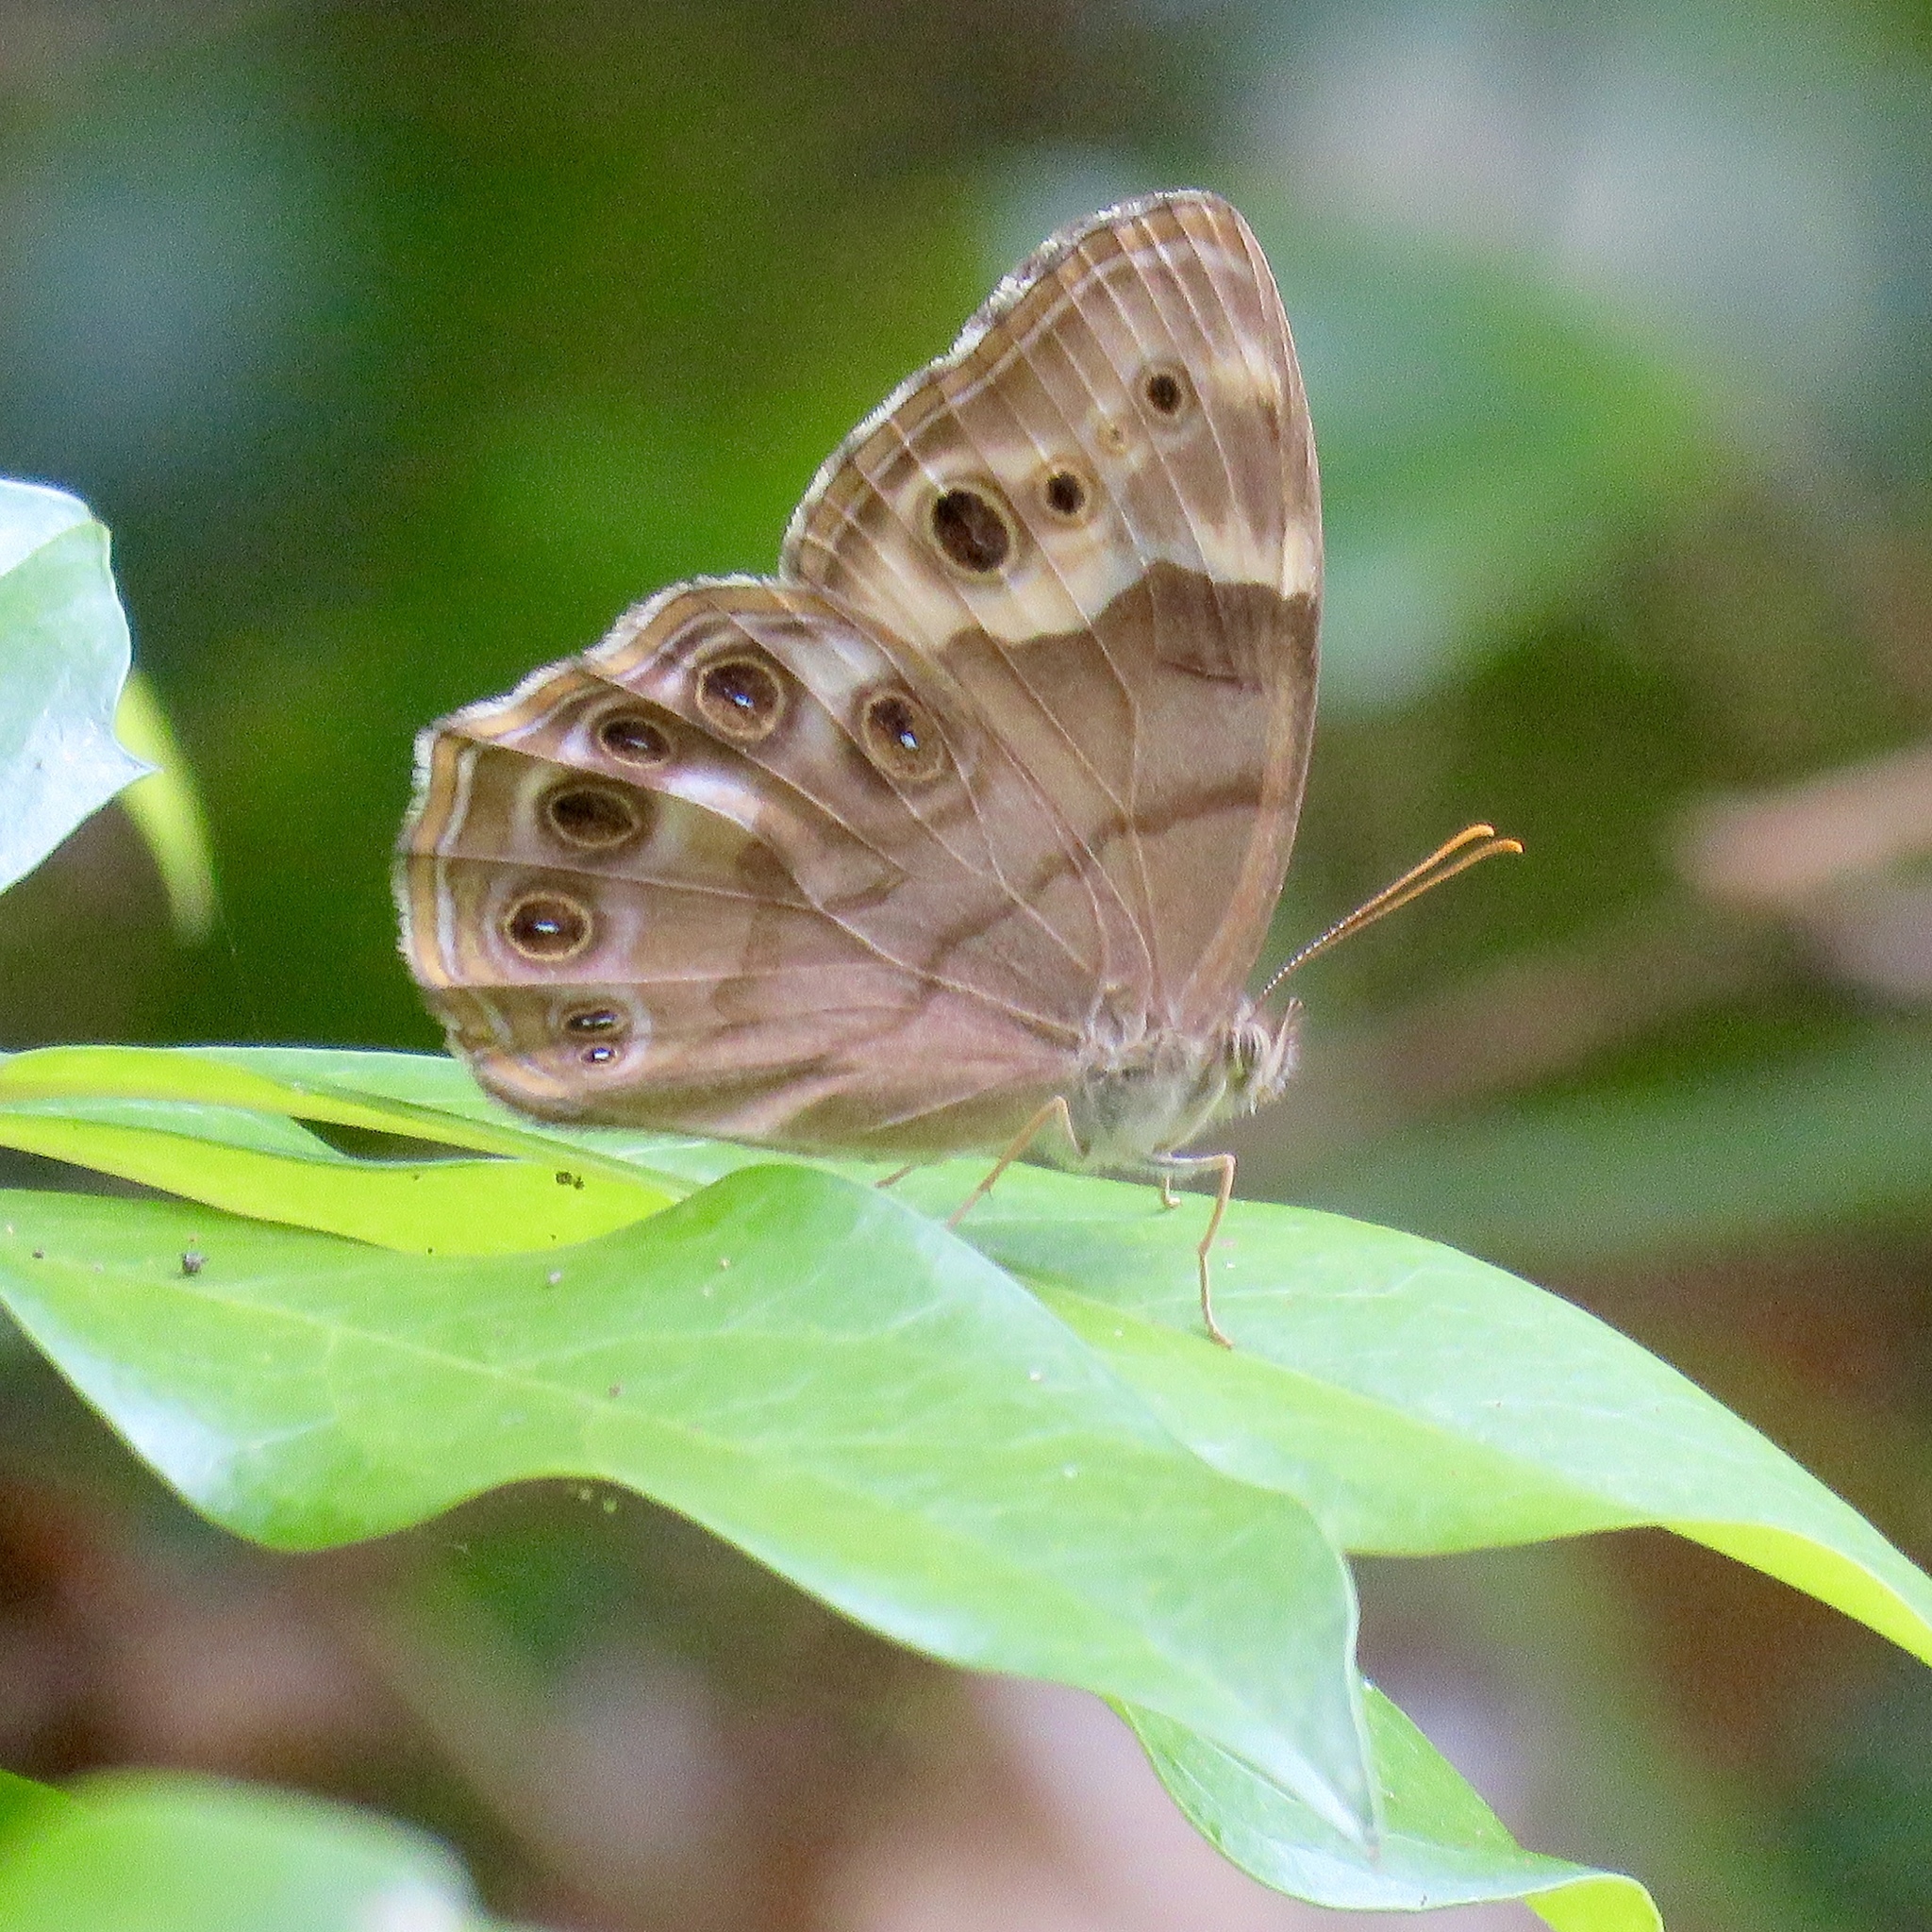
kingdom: Animalia
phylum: Arthropoda
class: Insecta
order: Lepidoptera
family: Nymphalidae
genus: Enodia
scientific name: Enodia portlandia
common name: Southern pearly-eye
